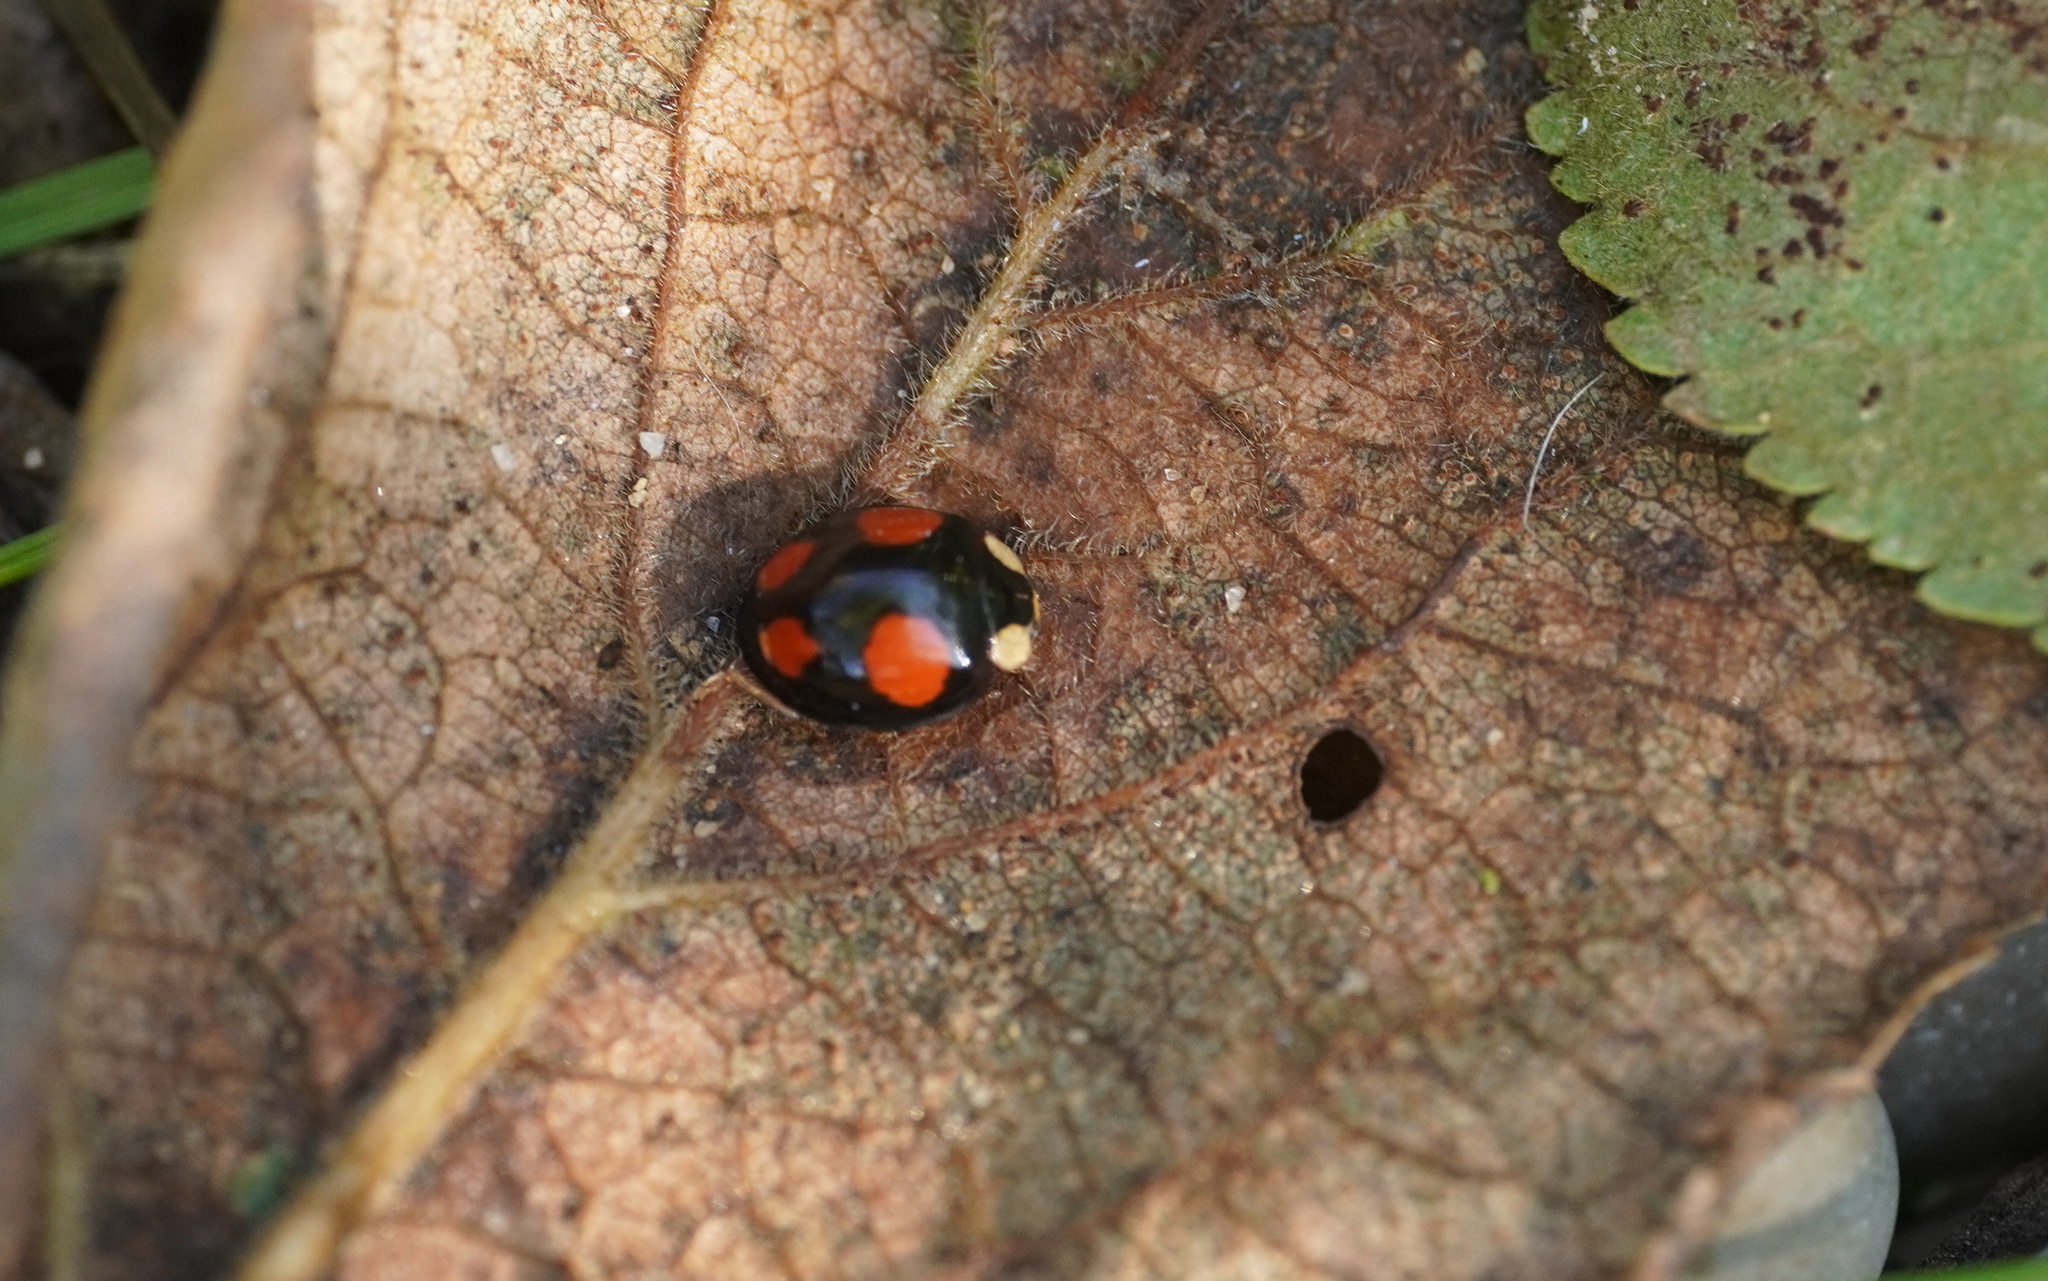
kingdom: Animalia
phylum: Arthropoda
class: Insecta
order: Coleoptera
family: Coccinellidae
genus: Harmonia
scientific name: Harmonia axyridis
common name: Harlequin ladybird
